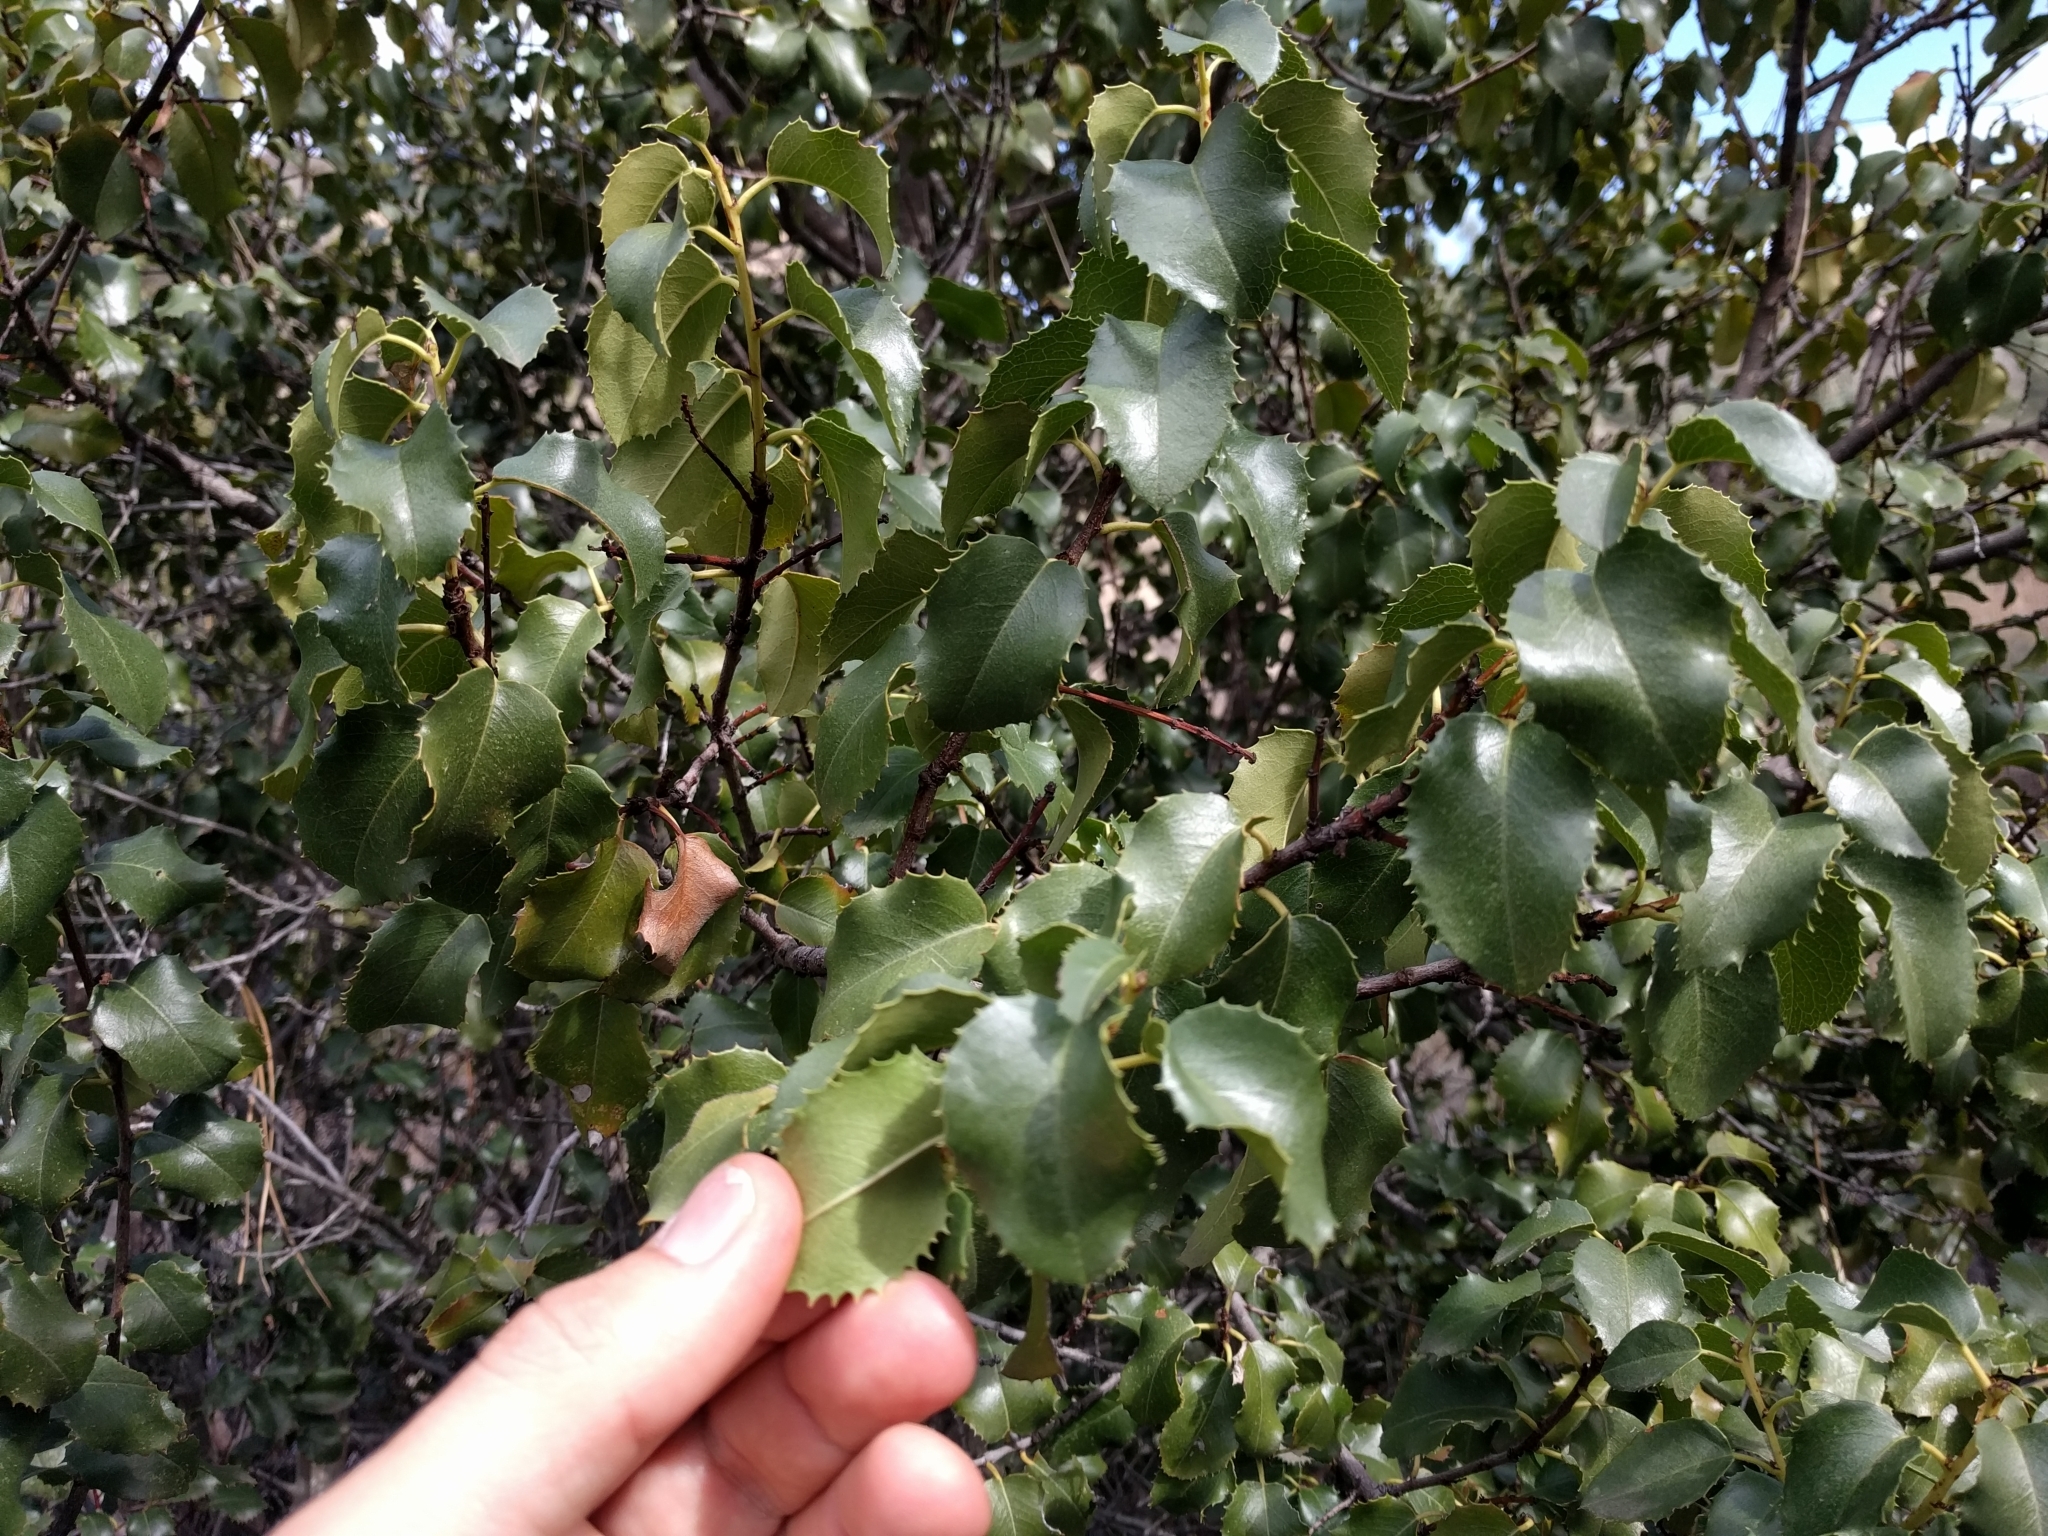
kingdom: Plantae
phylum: Tracheophyta
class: Magnoliopsida
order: Rosales
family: Rosaceae
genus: Prunus
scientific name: Prunus ilicifolia
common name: Hollyleaf cherry
